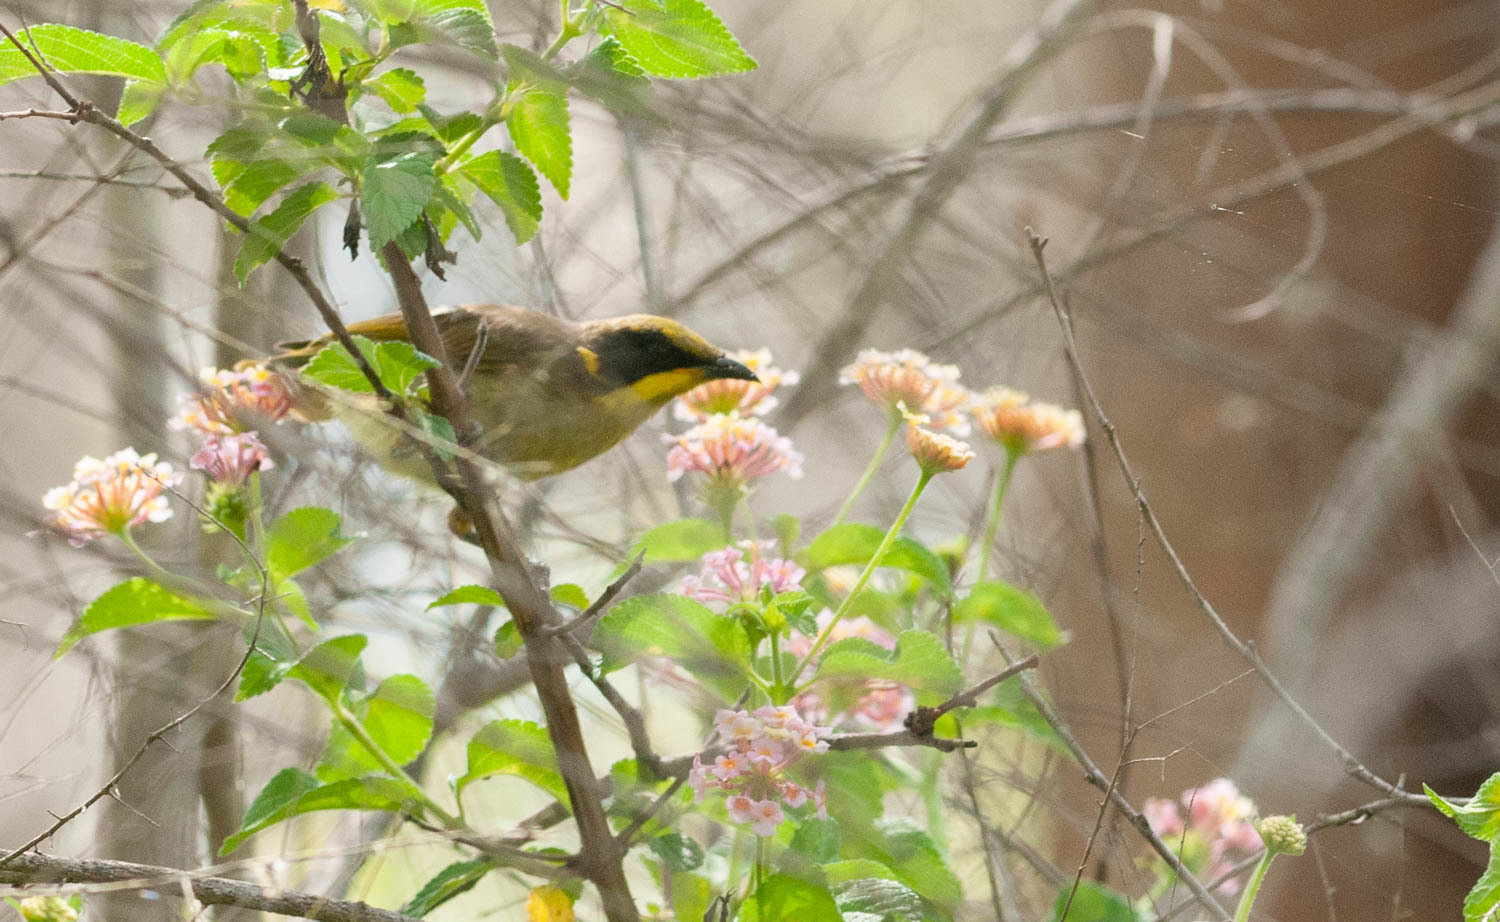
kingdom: Animalia
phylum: Chordata
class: Aves
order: Passeriformes
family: Meliphagidae
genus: Lichenostomus
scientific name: Lichenostomus melanops
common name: Yellow-tufted honeyeater
